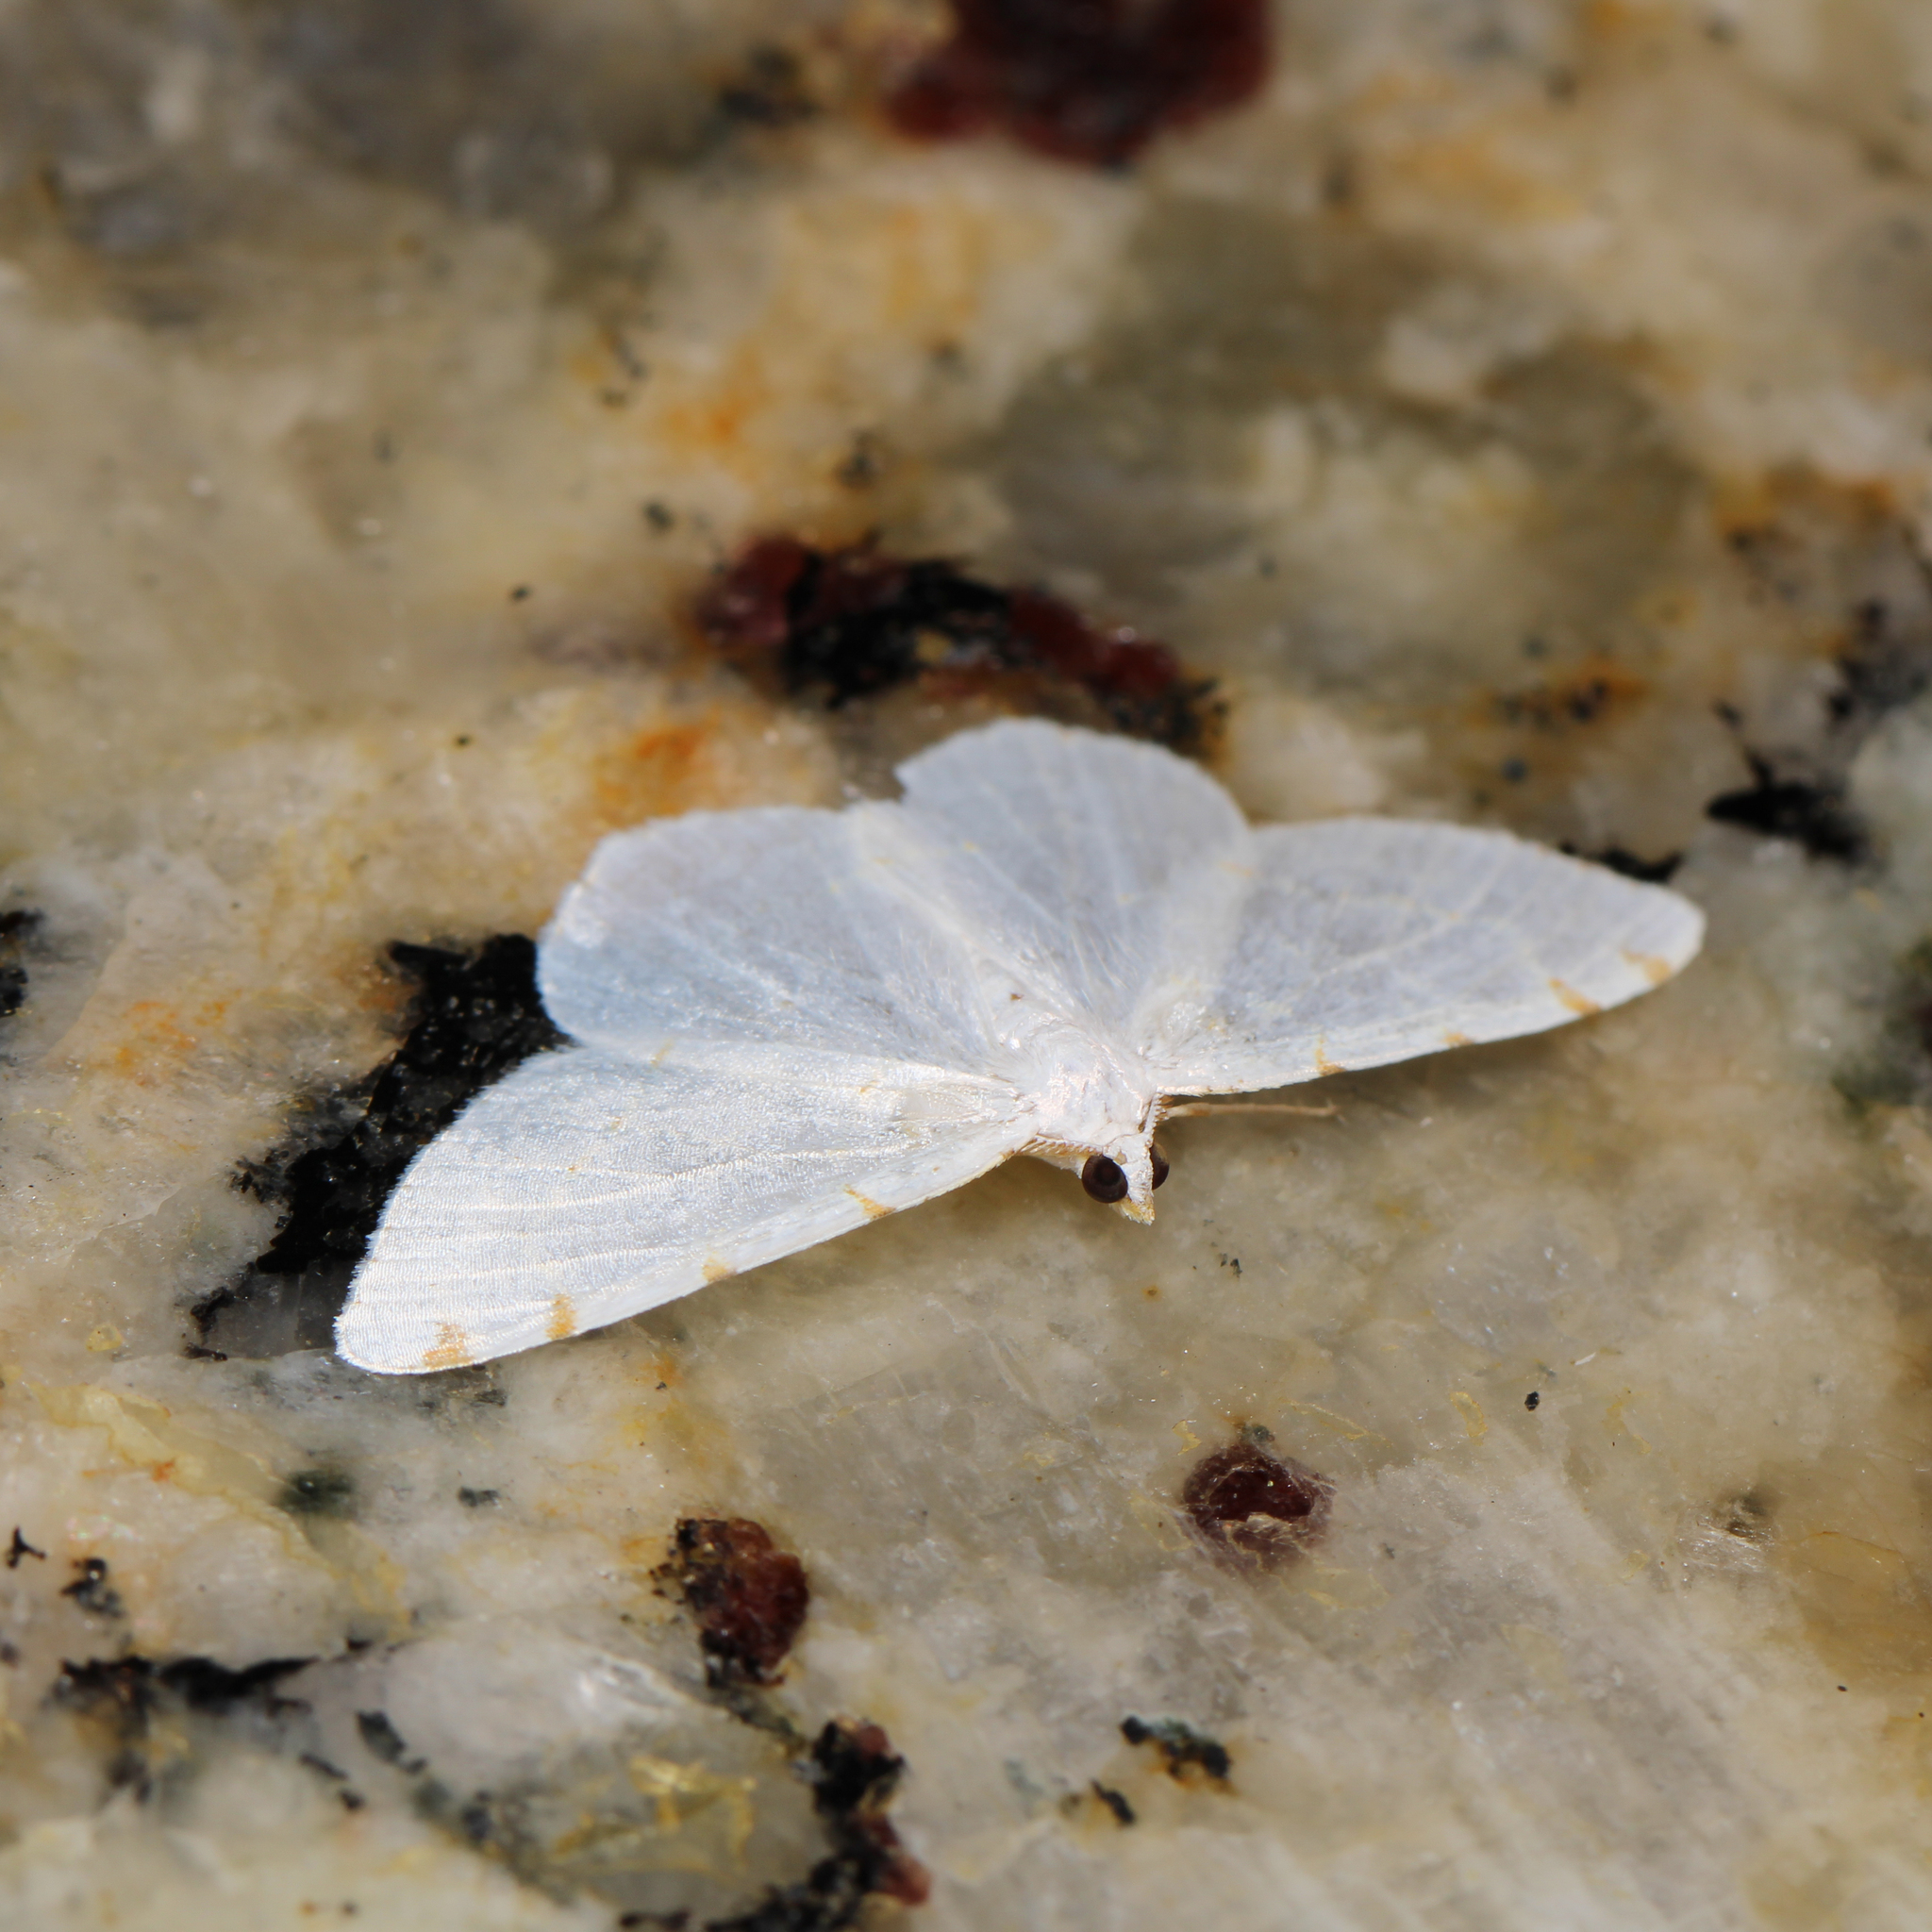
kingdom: Animalia
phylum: Arthropoda
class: Insecta
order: Lepidoptera
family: Geometridae
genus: Macaria
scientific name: Macaria pustularia
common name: Lesser maple spanworm moth
